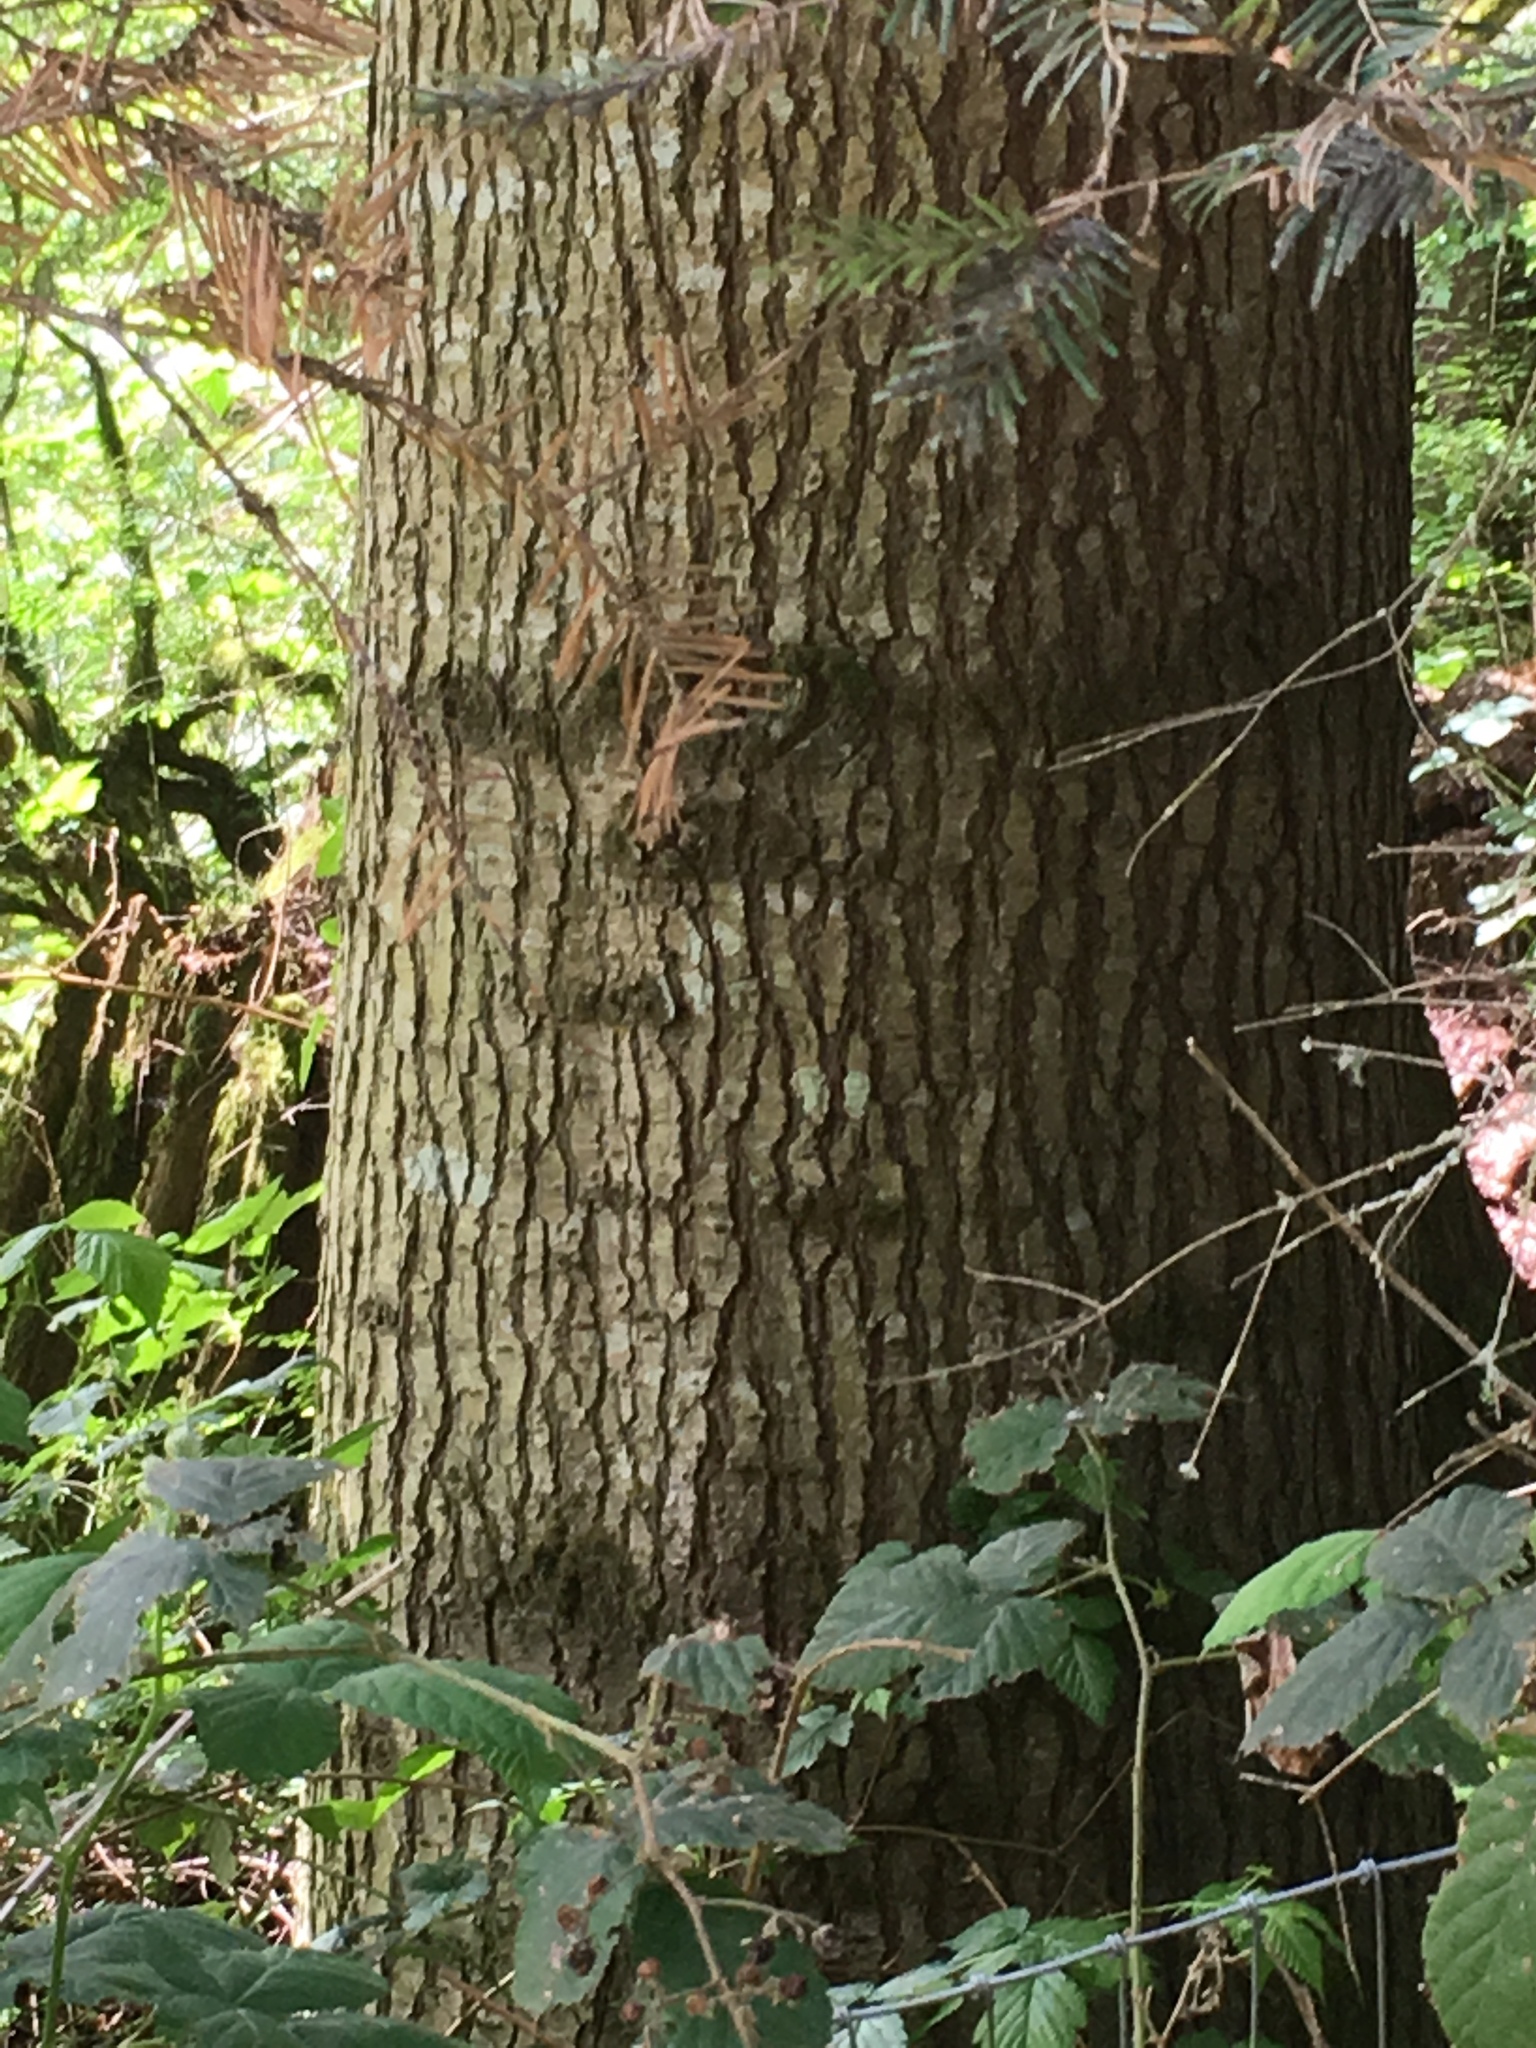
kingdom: Plantae
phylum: Tracheophyta
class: Pinopsida
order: Pinales
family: Pinaceae
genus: Abies
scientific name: Abies grandis
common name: Giant fir
